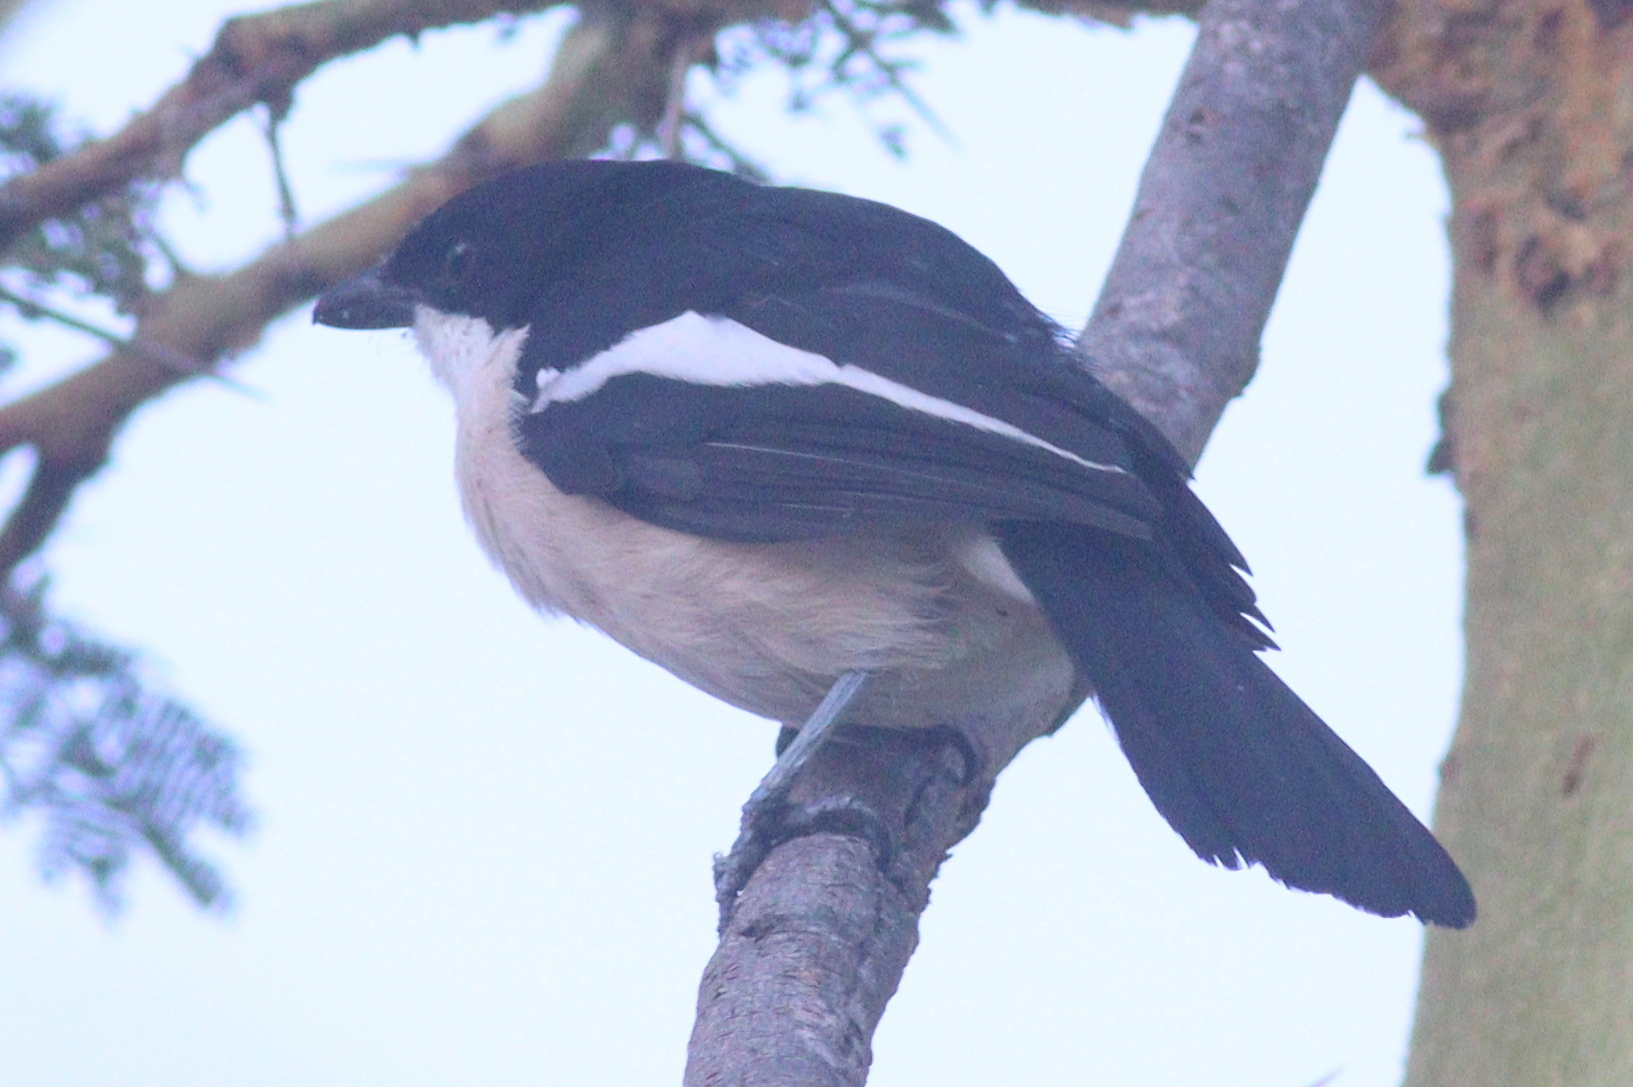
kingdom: Animalia
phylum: Chordata
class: Aves
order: Passeriformes
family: Malaconotidae
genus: Laniarius
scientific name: Laniarius major
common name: Tropical boubou
